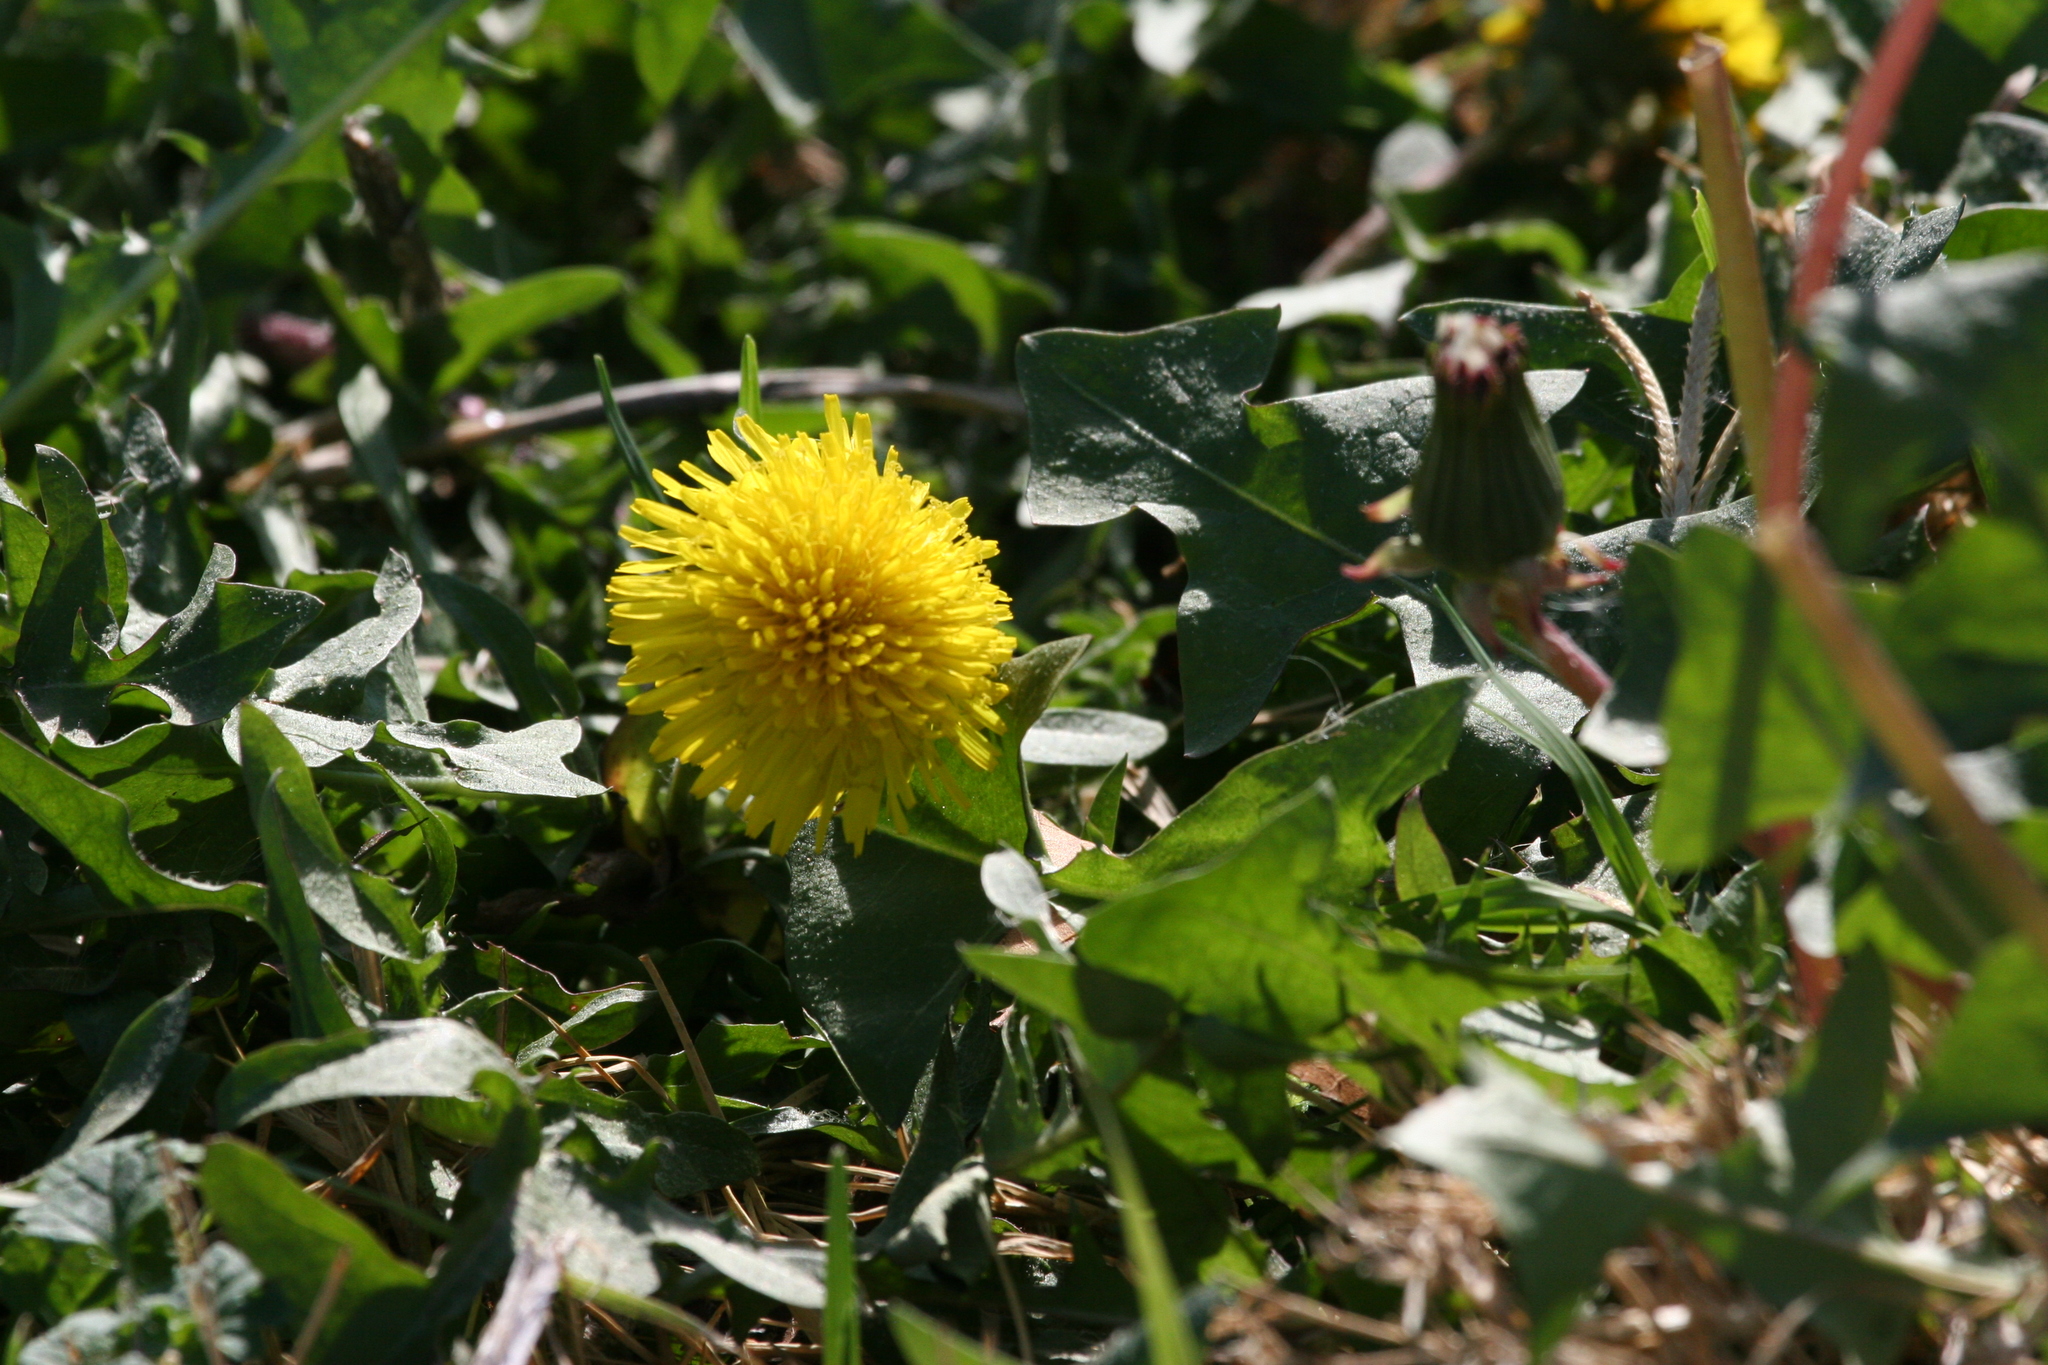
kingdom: Plantae
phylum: Tracheophyta
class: Magnoliopsida
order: Asterales
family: Asteraceae
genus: Taraxacum
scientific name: Taraxacum officinale
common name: Common dandelion
